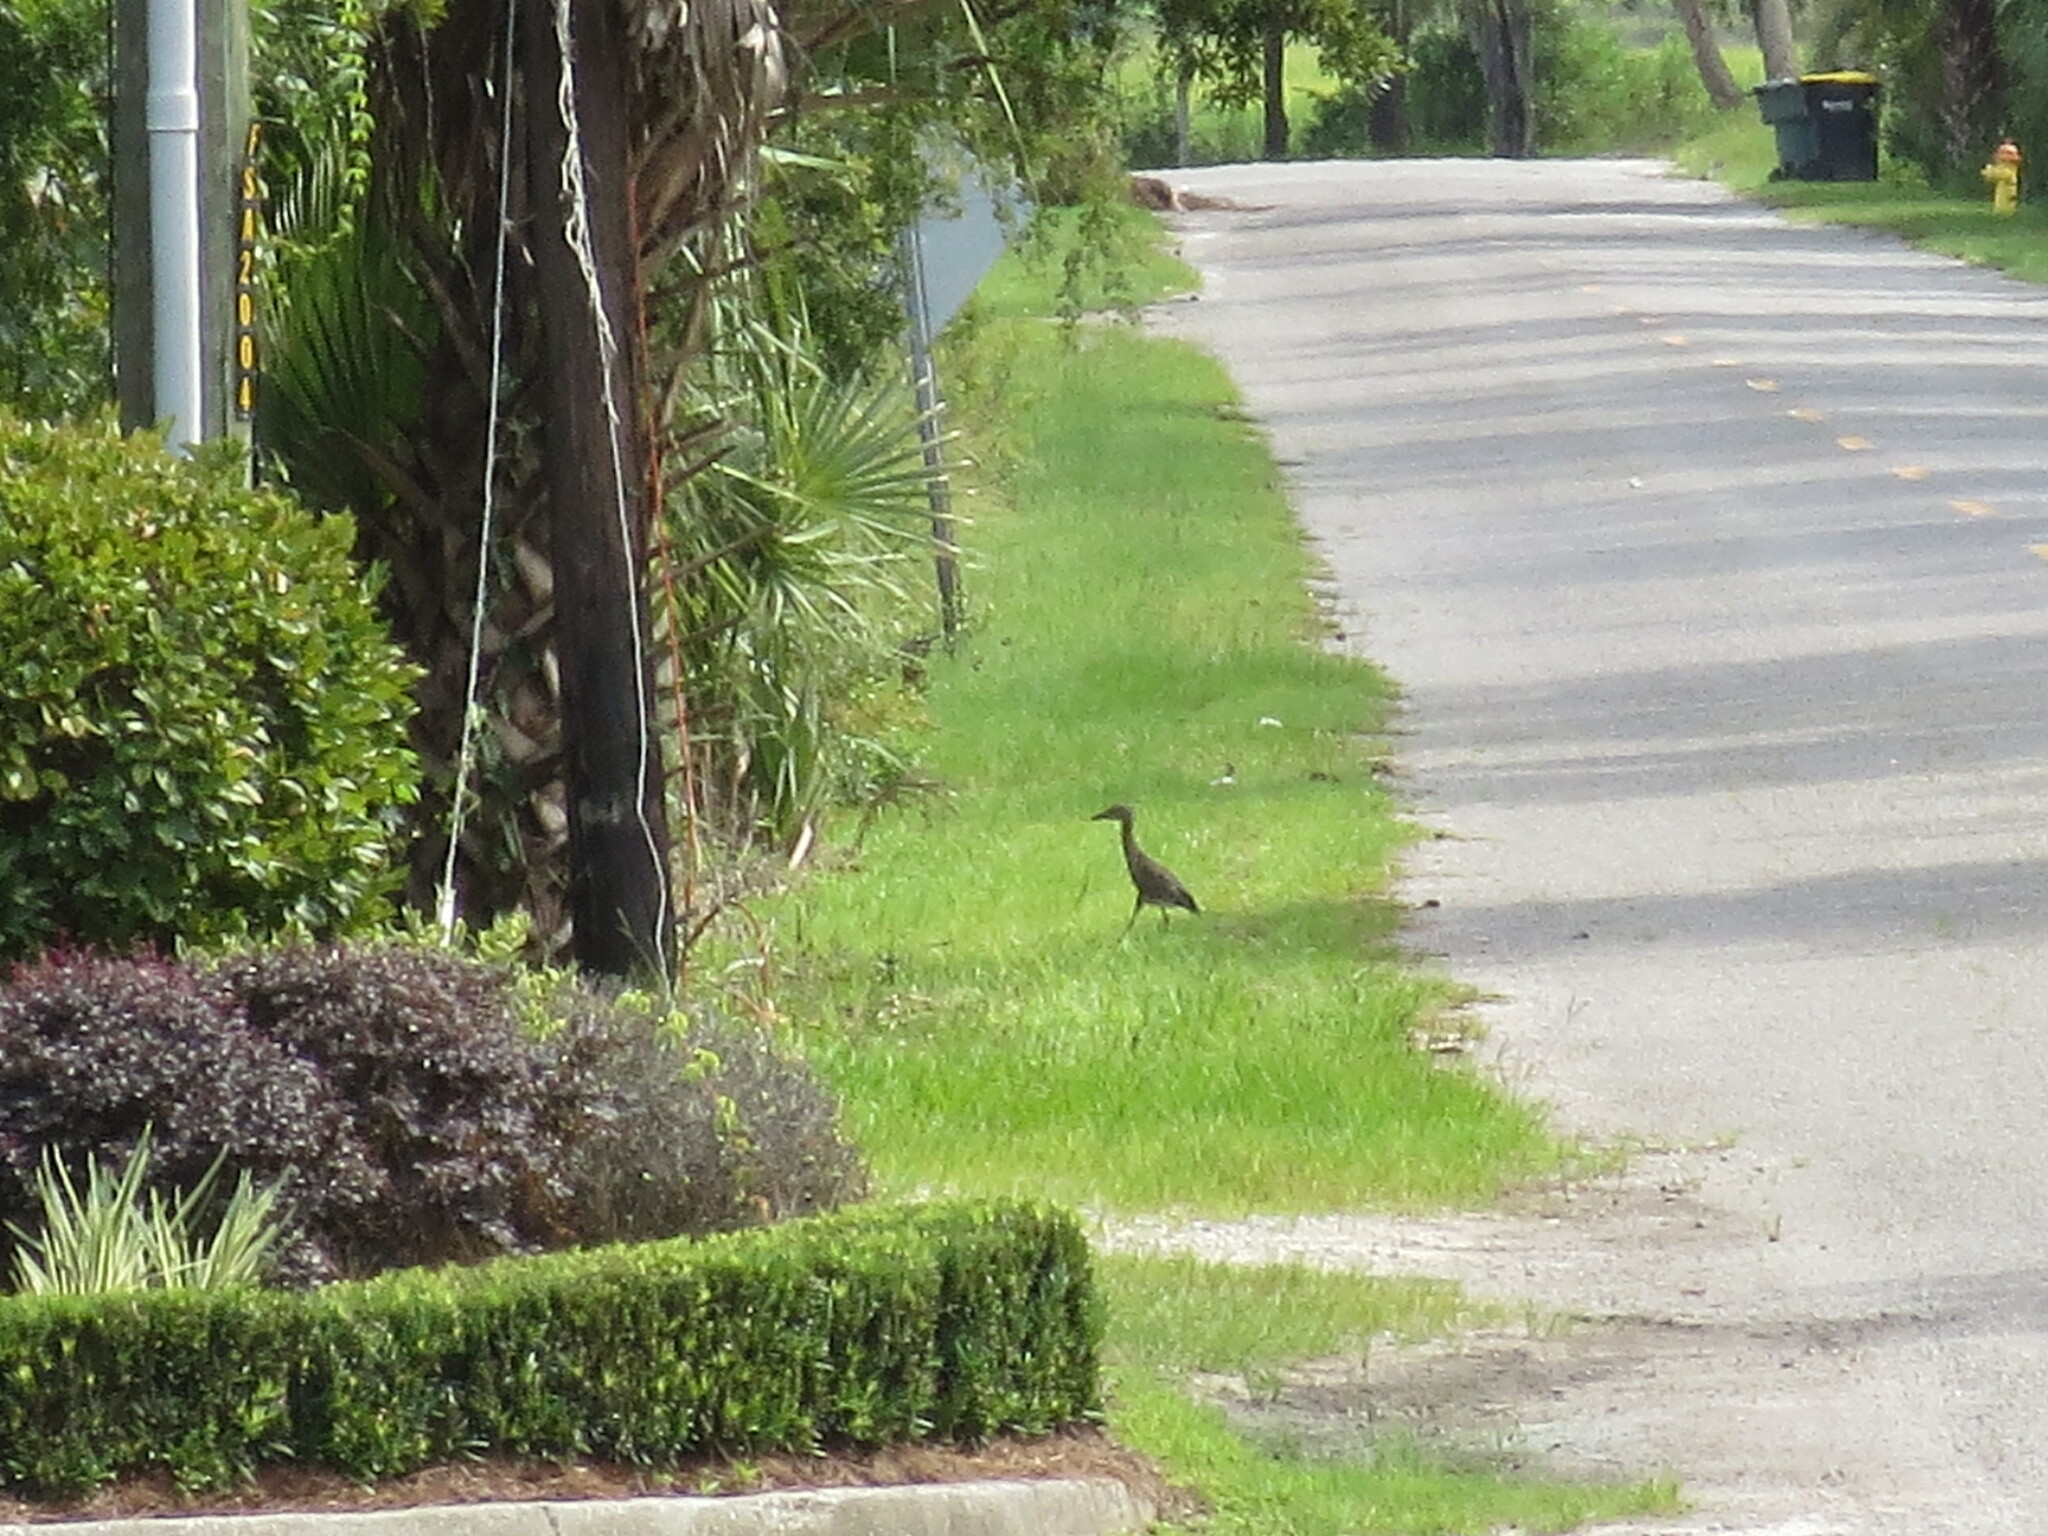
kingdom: Animalia
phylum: Chordata
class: Aves
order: Pelecaniformes
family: Ardeidae
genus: Nyctanassa
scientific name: Nyctanassa violacea
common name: Yellow-crowned night heron
